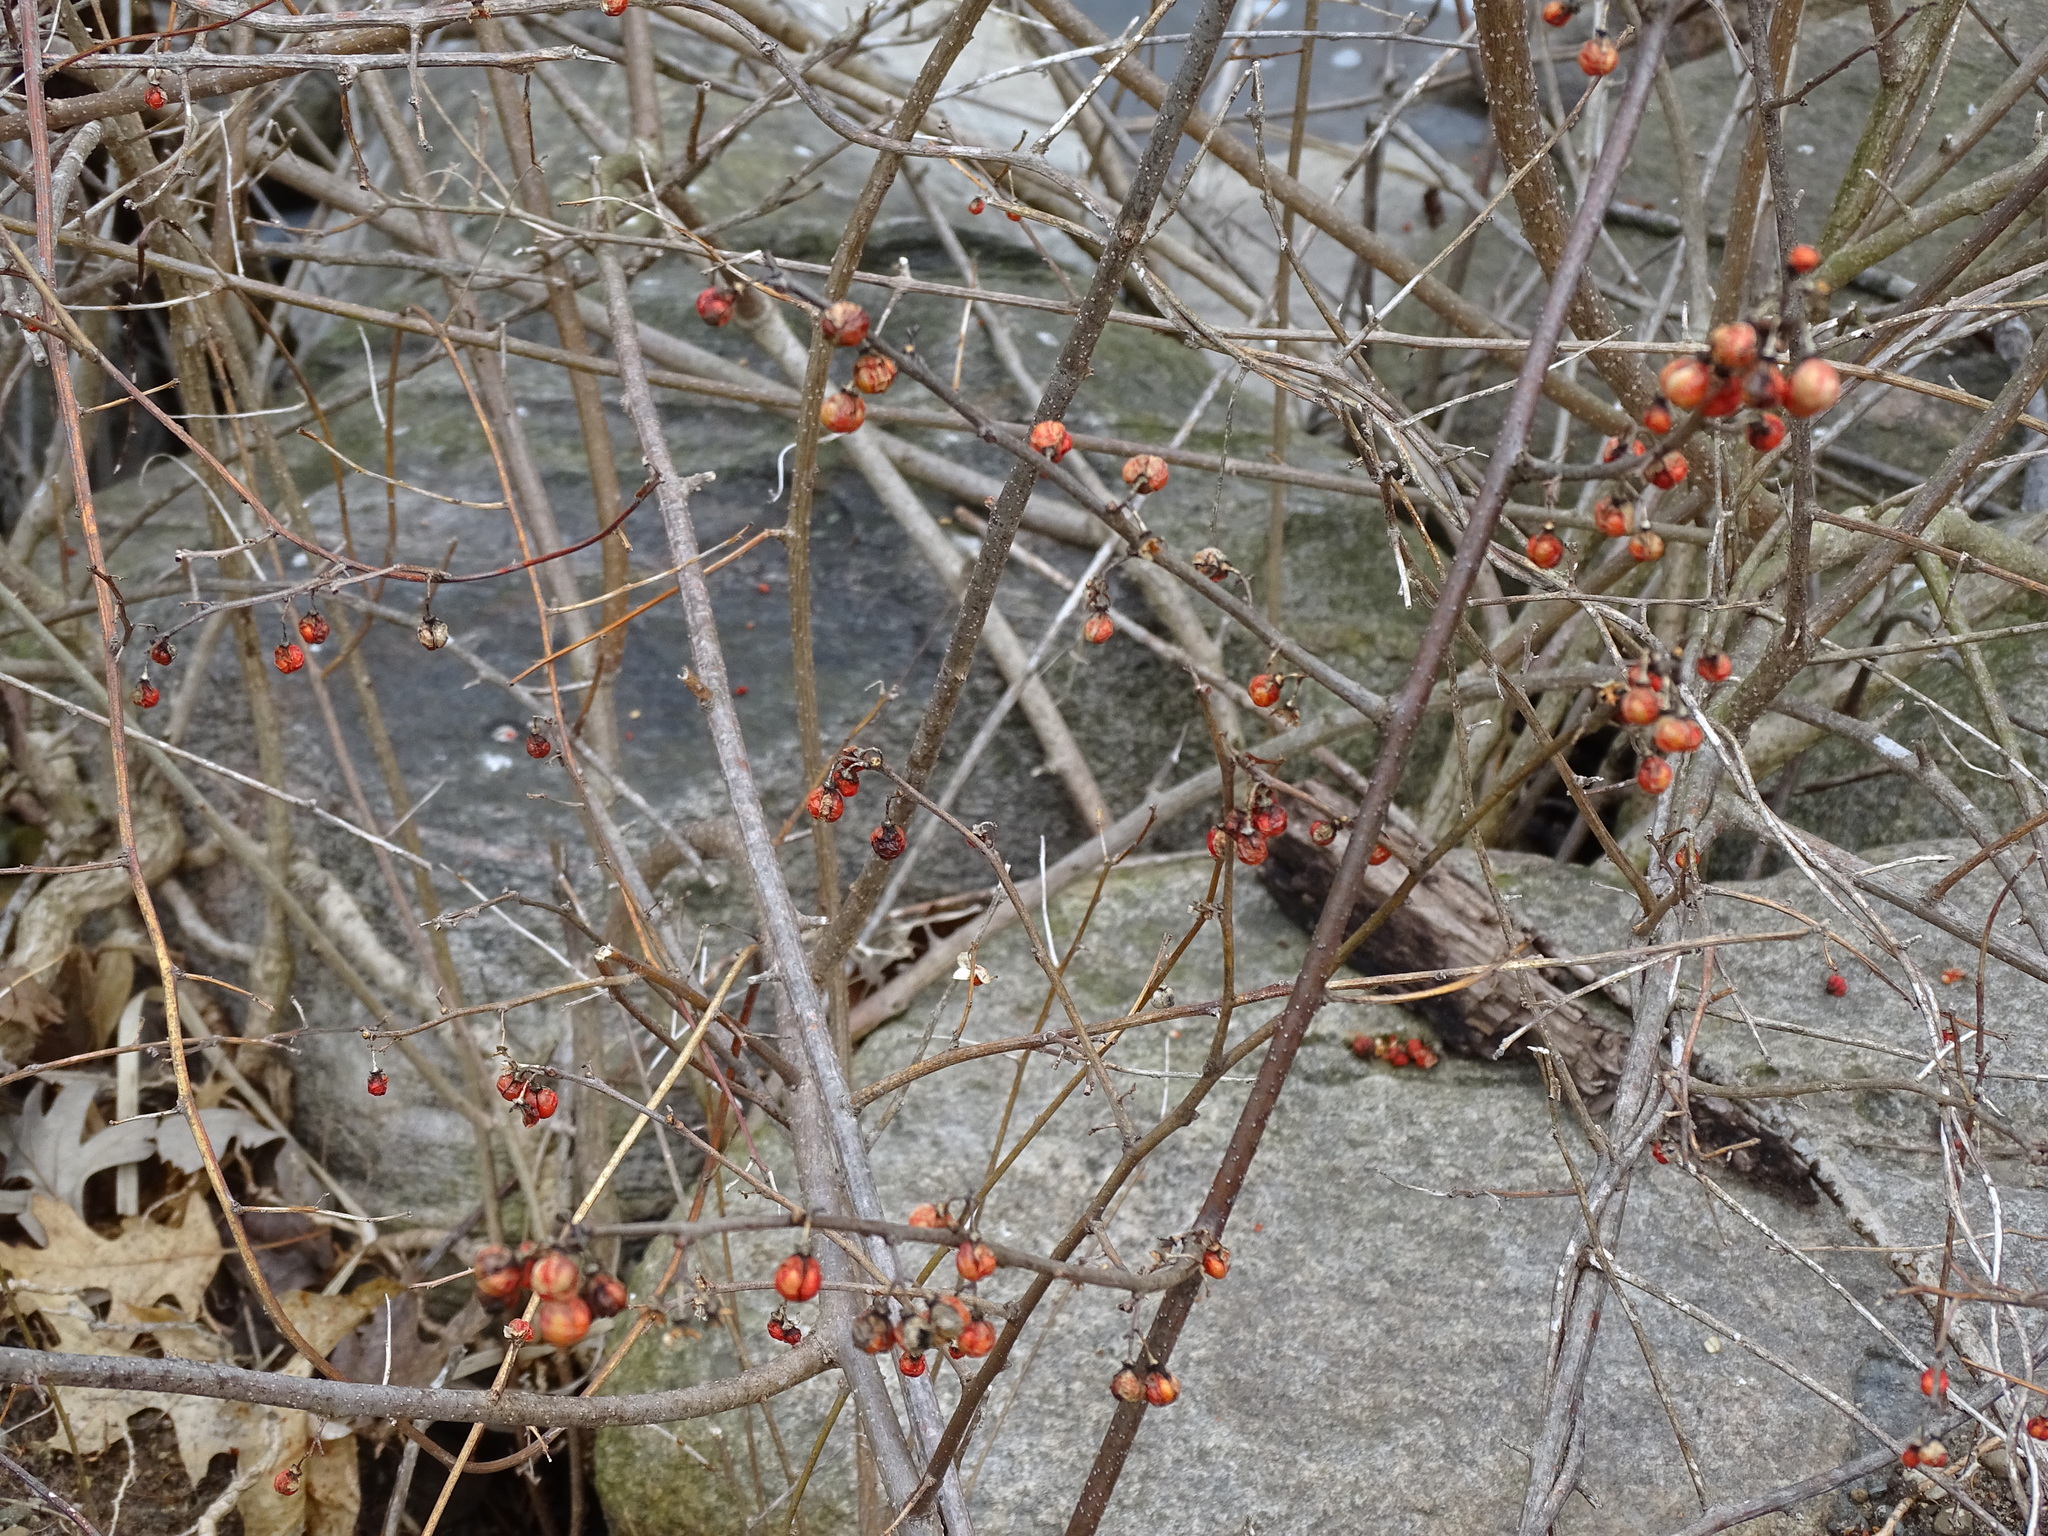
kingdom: Plantae
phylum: Tracheophyta
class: Magnoliopsida
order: Celastrales
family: Celastraceae
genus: Celastrus
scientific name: Celastrus orbiculatus
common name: Oriental bittersweet
